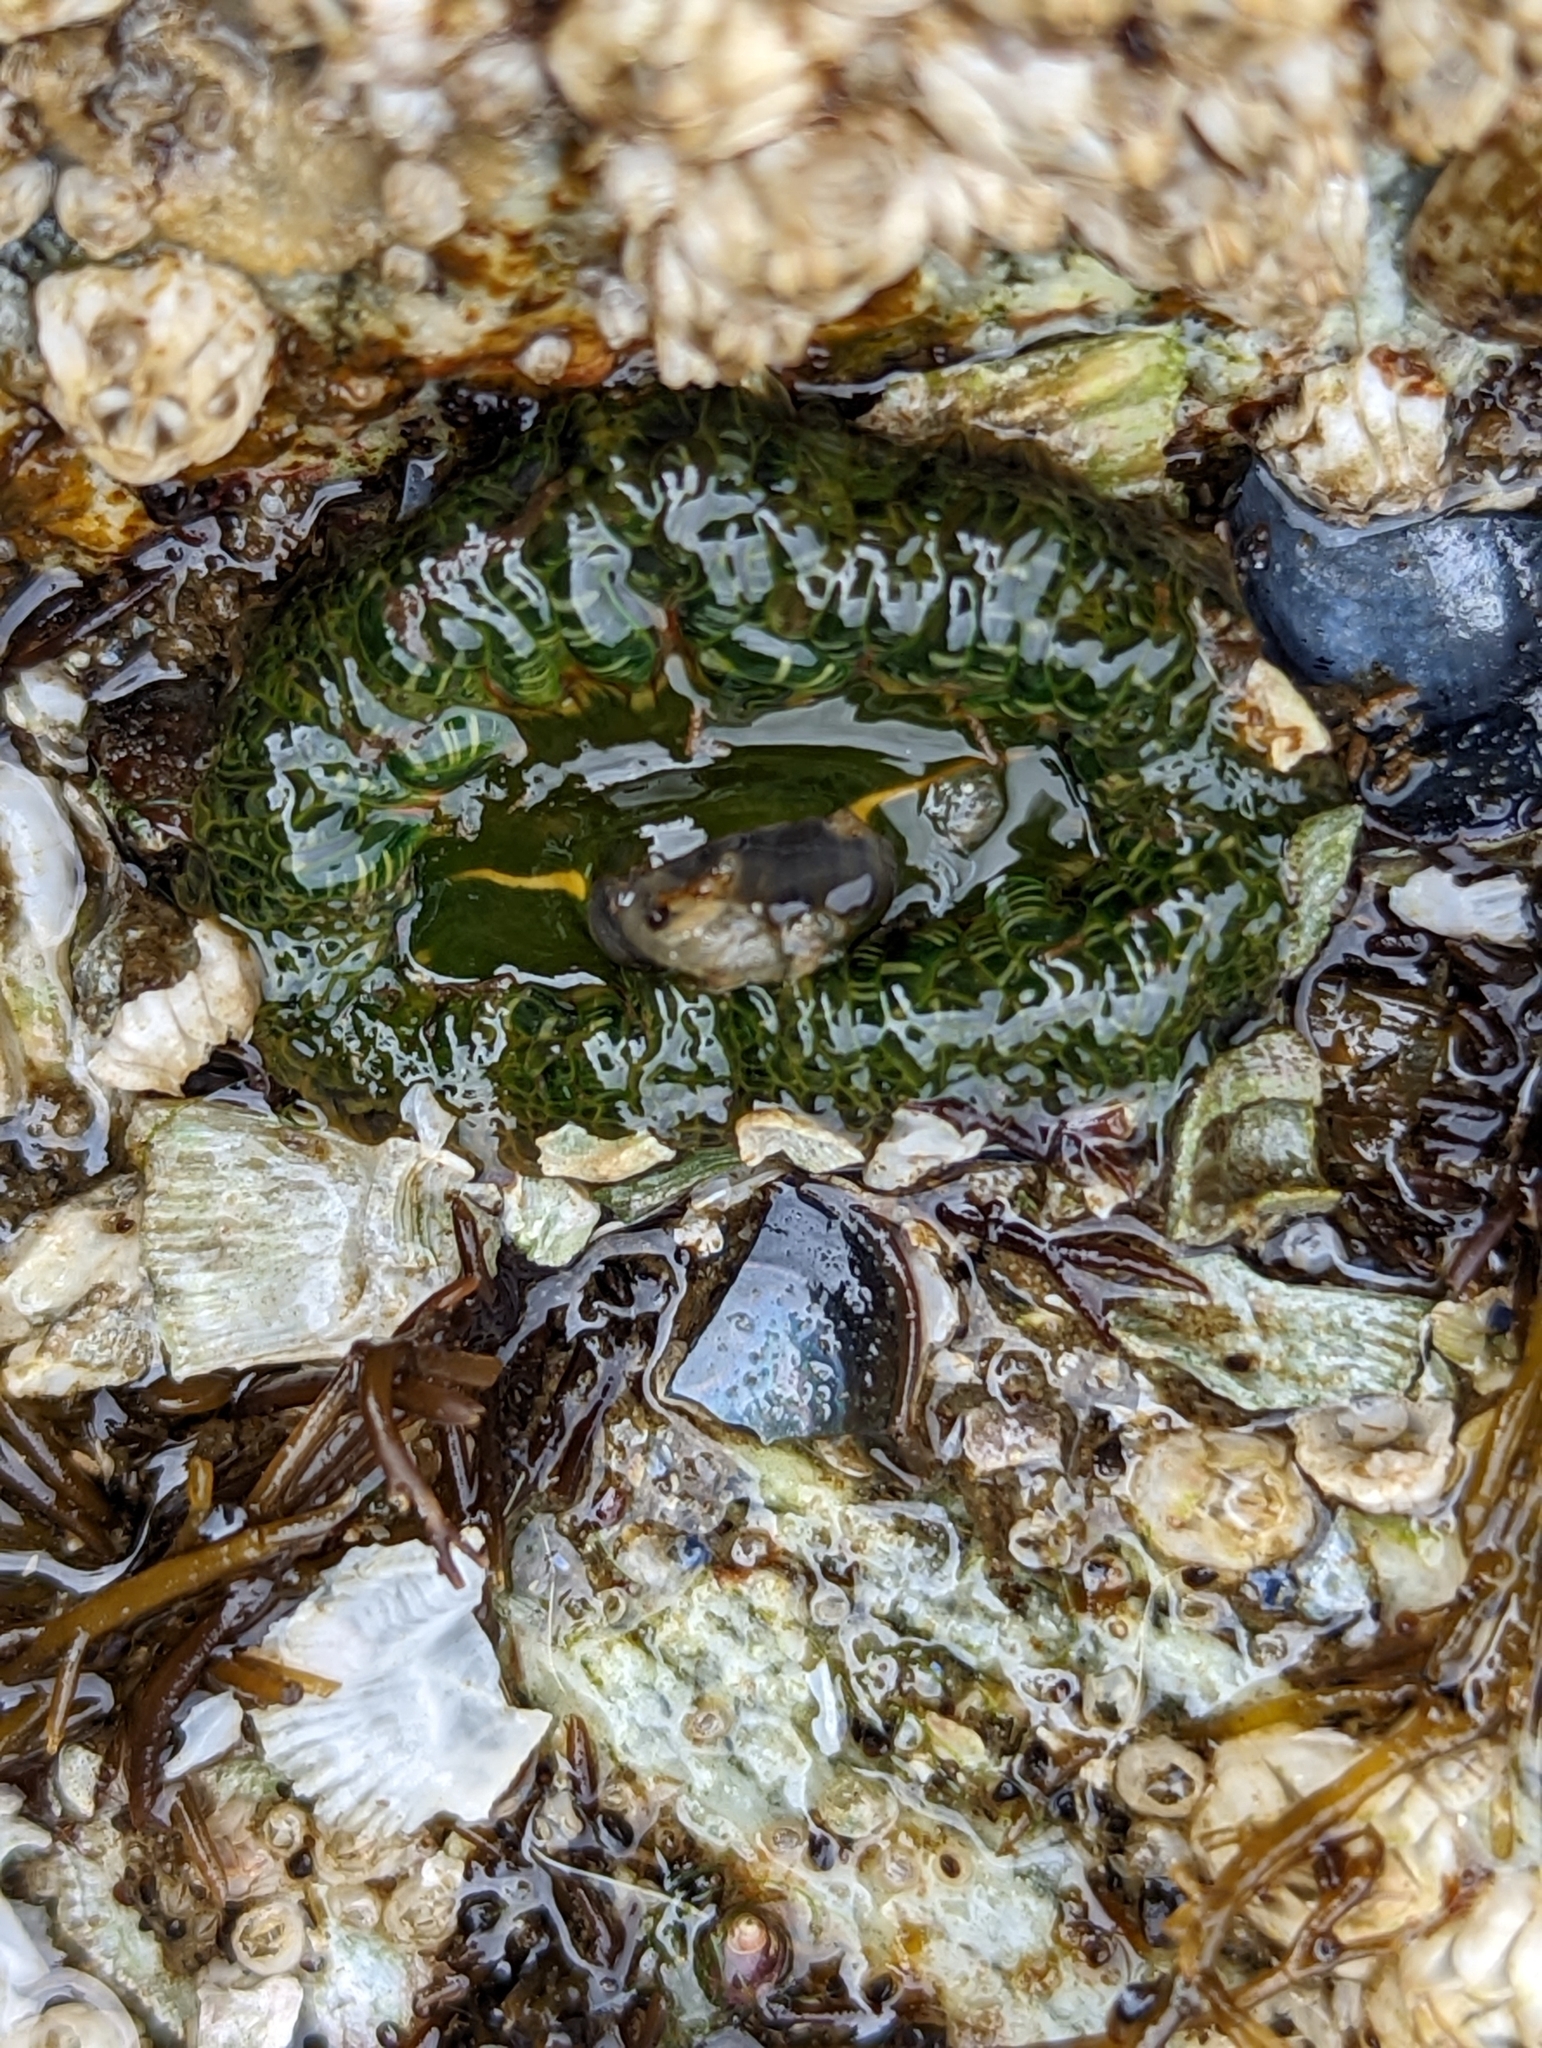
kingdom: Animalia
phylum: Cnidaria
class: Anthozoa
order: Actiniaria
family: Actiniidae
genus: Anthopleura
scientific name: Anthopleura artemisia
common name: Buried sea anemone
